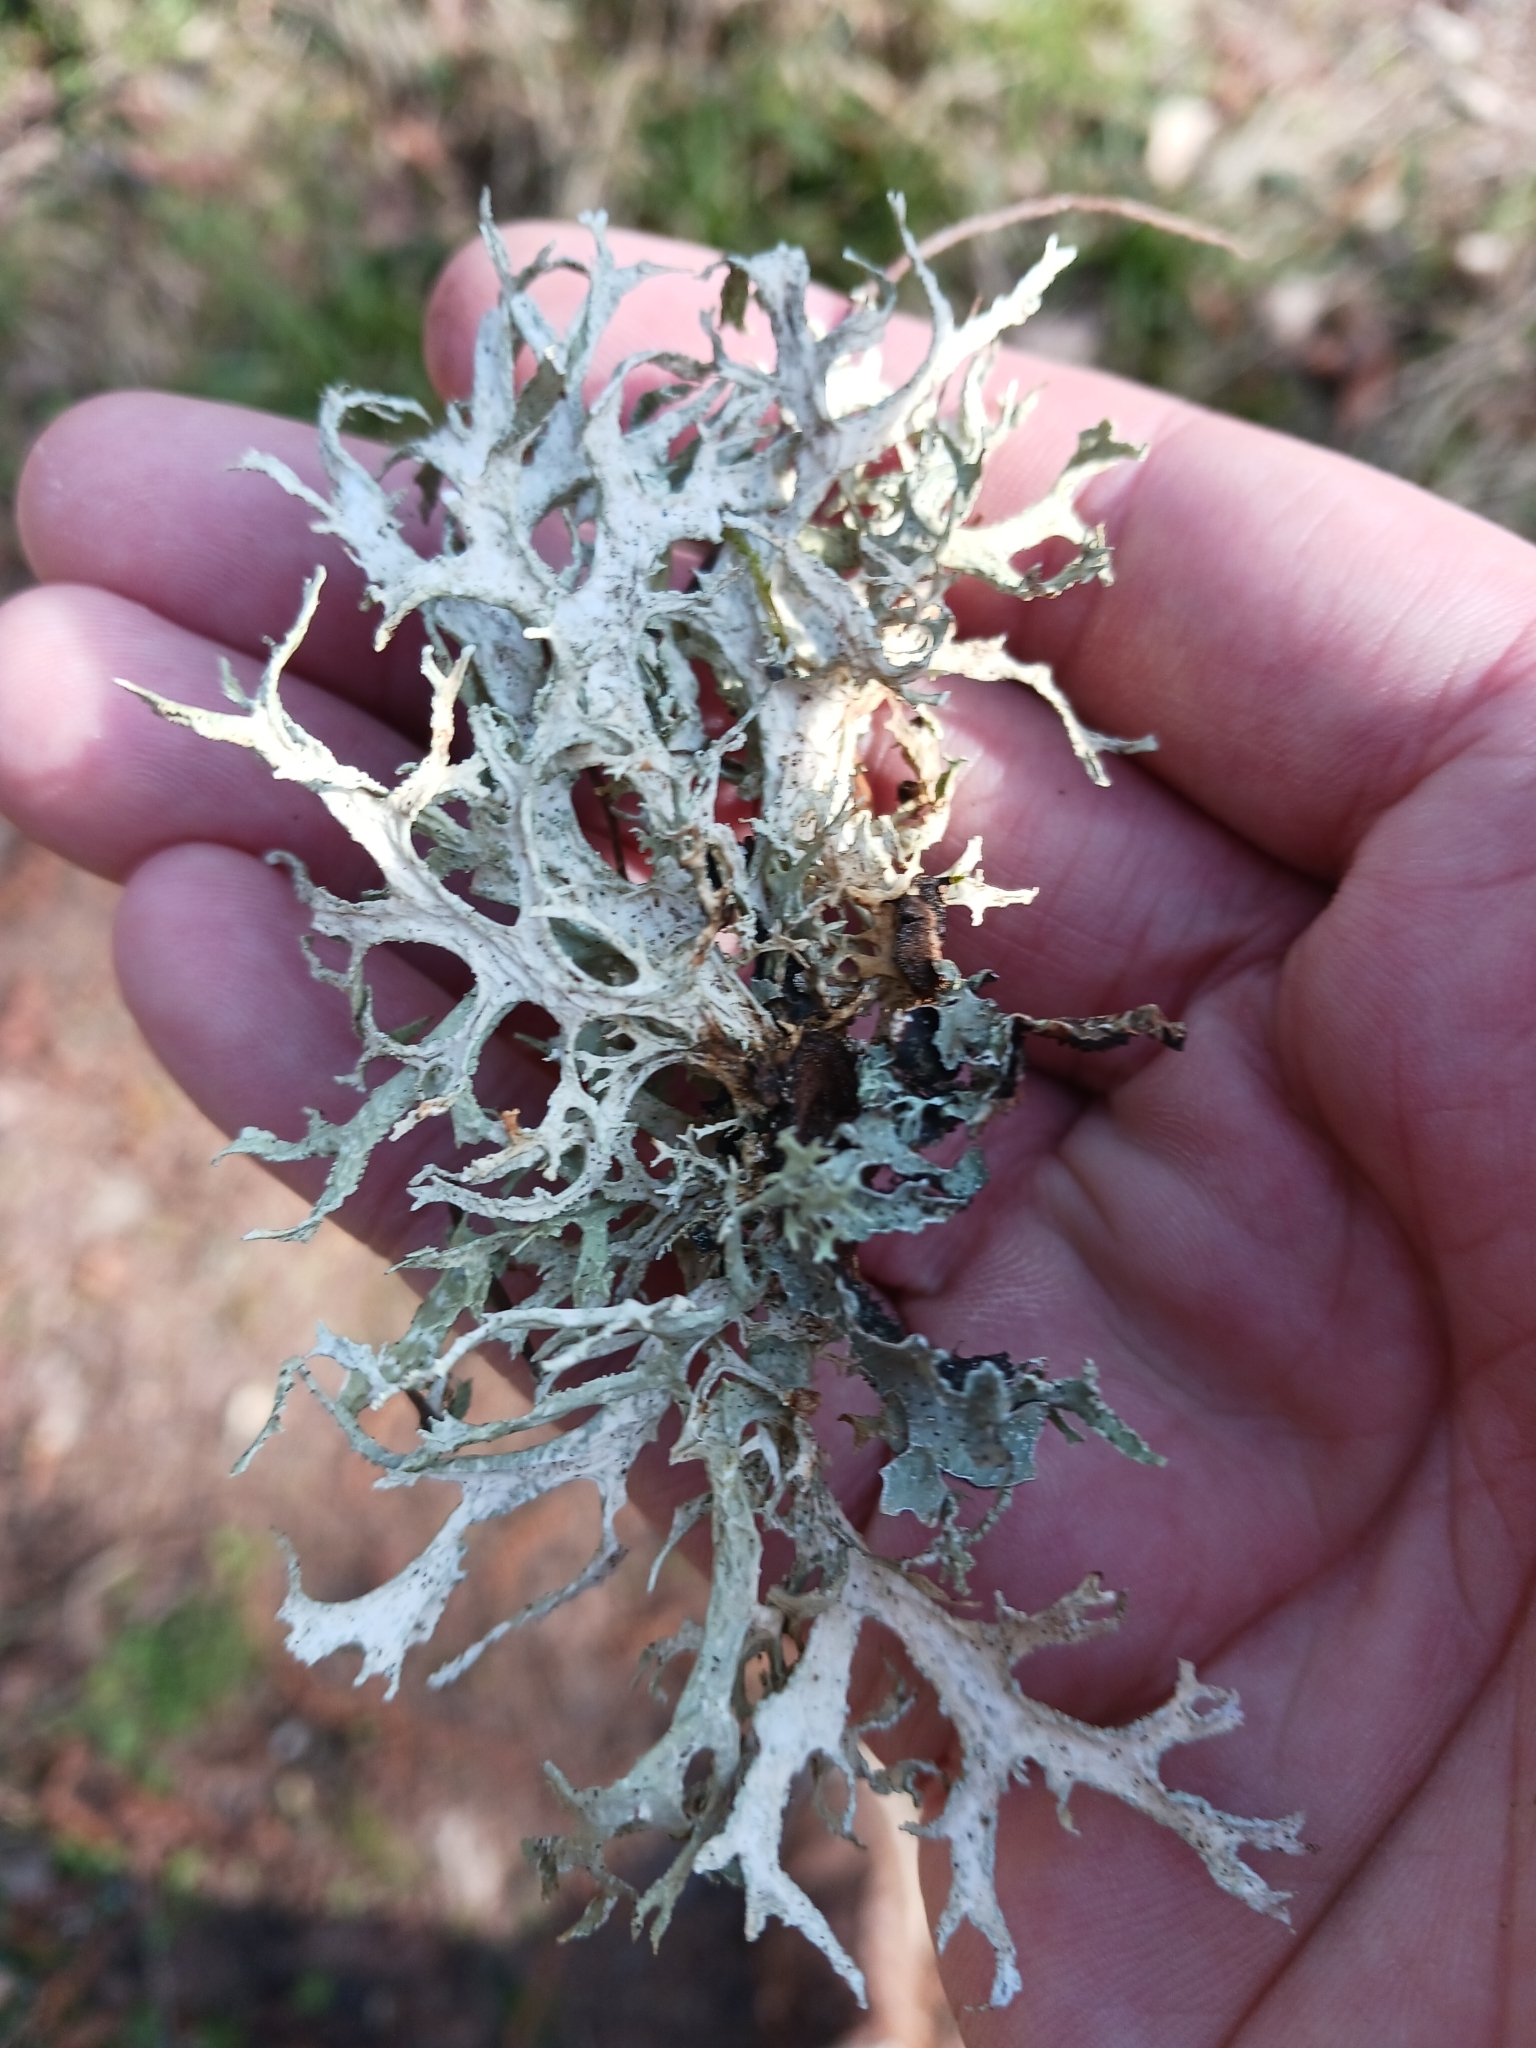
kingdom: Fungi
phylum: Ascomycota
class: Lecanoromycetes
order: Lecanorales
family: Parmeliaceae
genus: Evernia
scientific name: Evernia prunastri
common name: Oak moss
